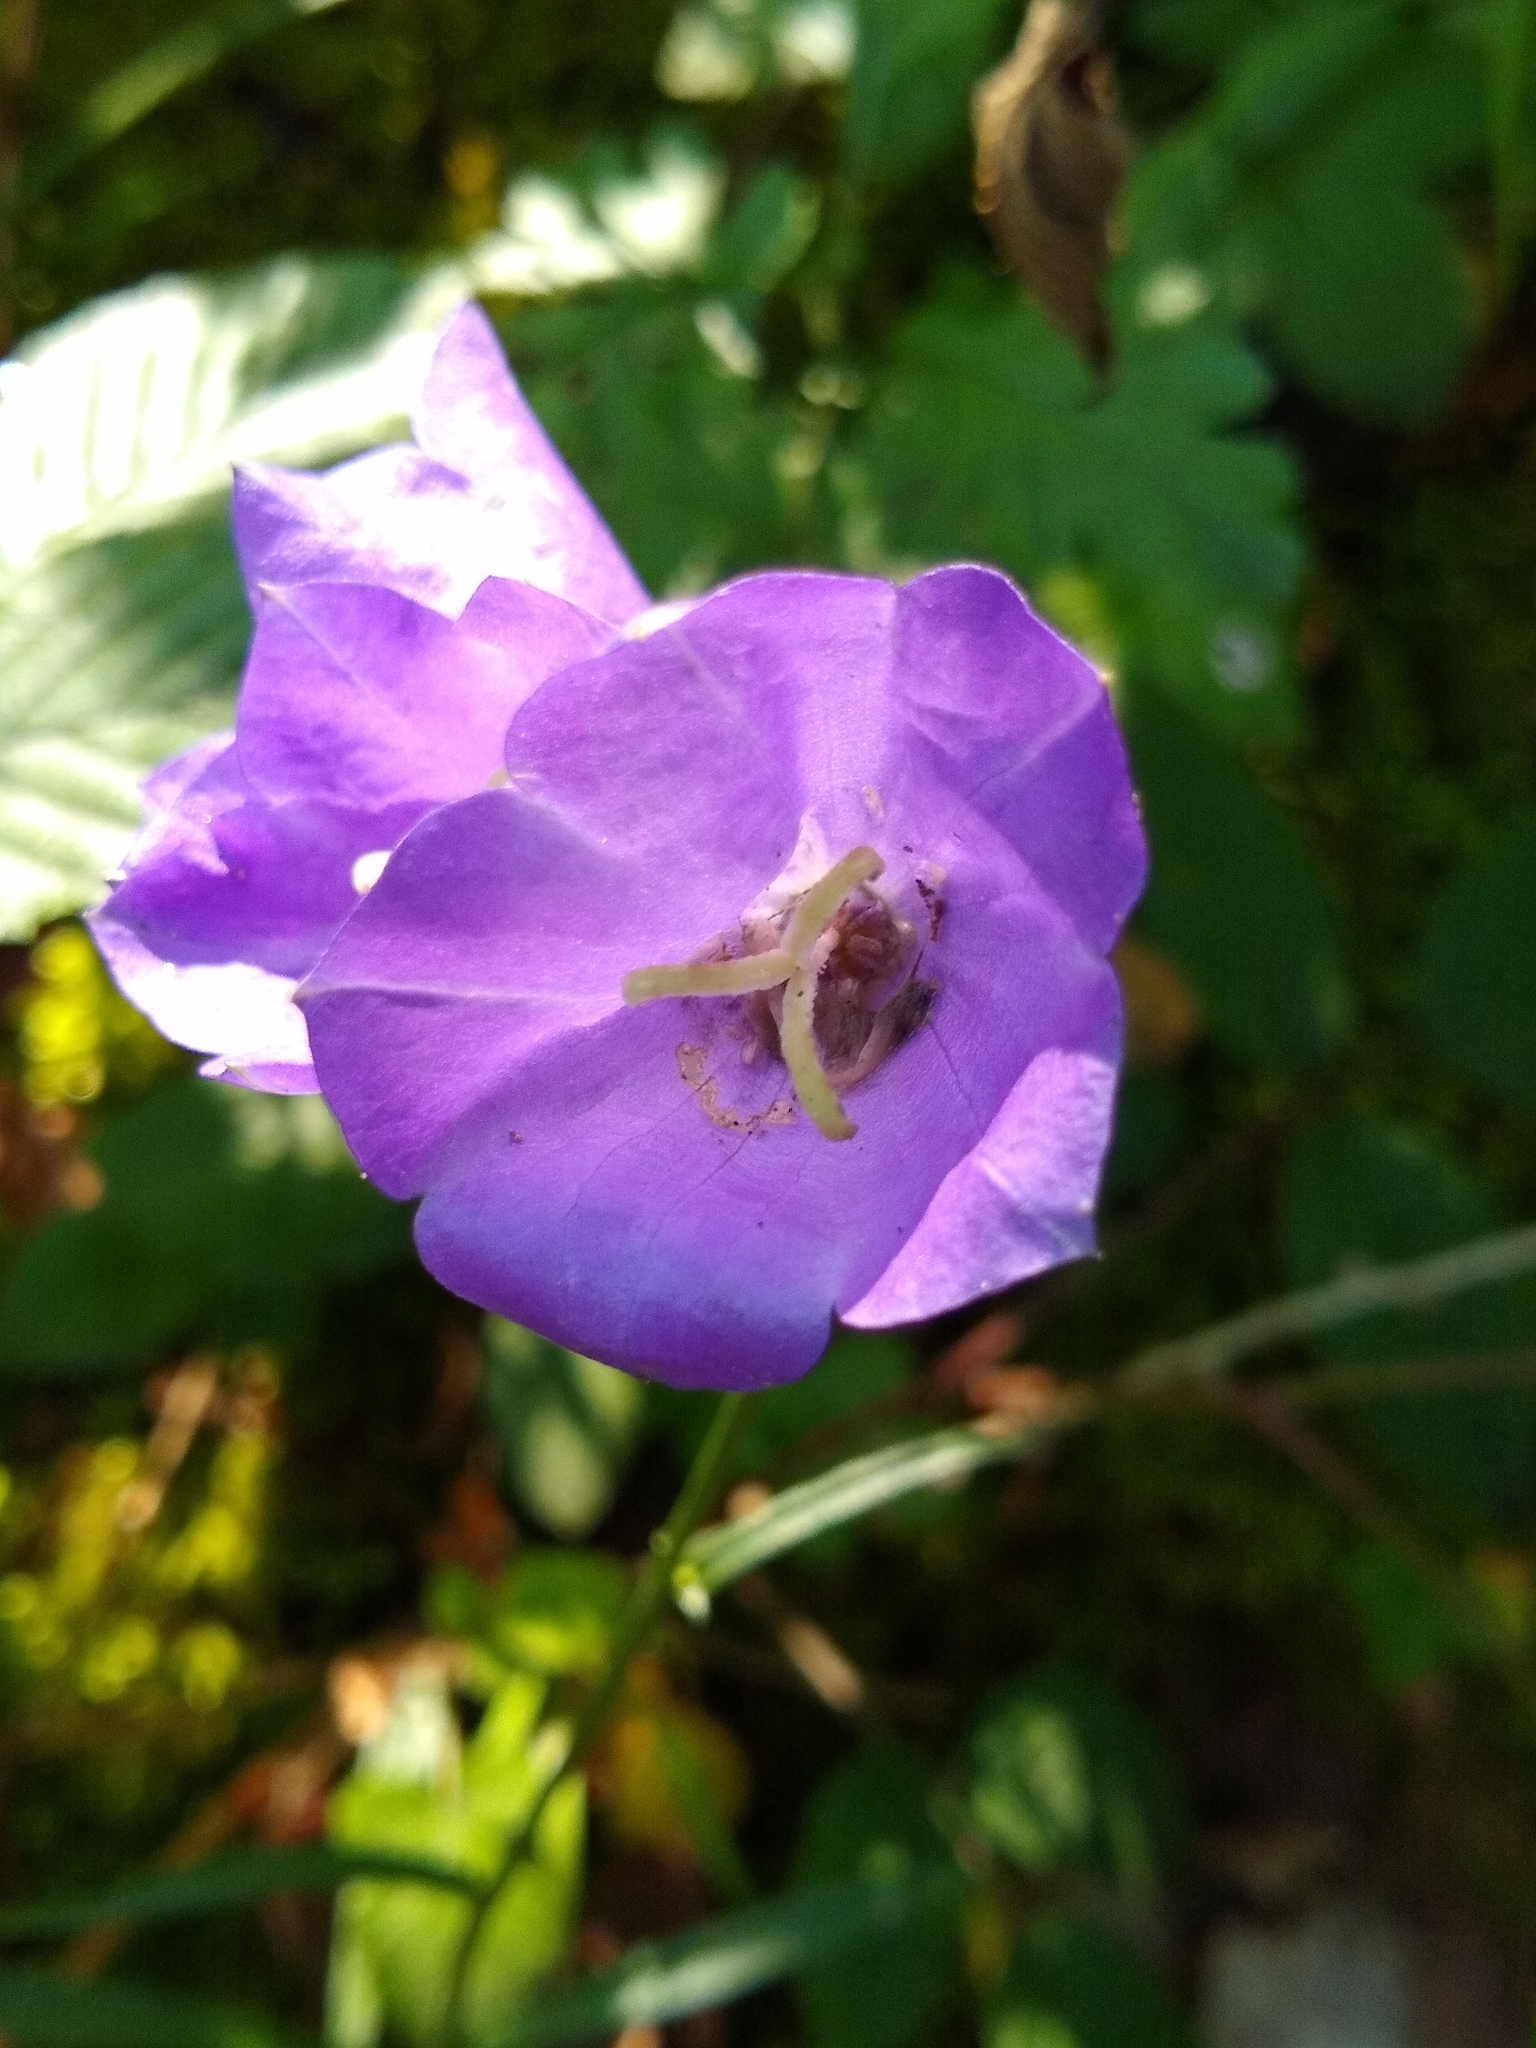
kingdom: Plantae
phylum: Tracheophyta
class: Magnoliopsida
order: Asterales
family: Campanulaceae
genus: Campanula
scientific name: Campanula persicifolia
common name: Peach-leaved bellflower
